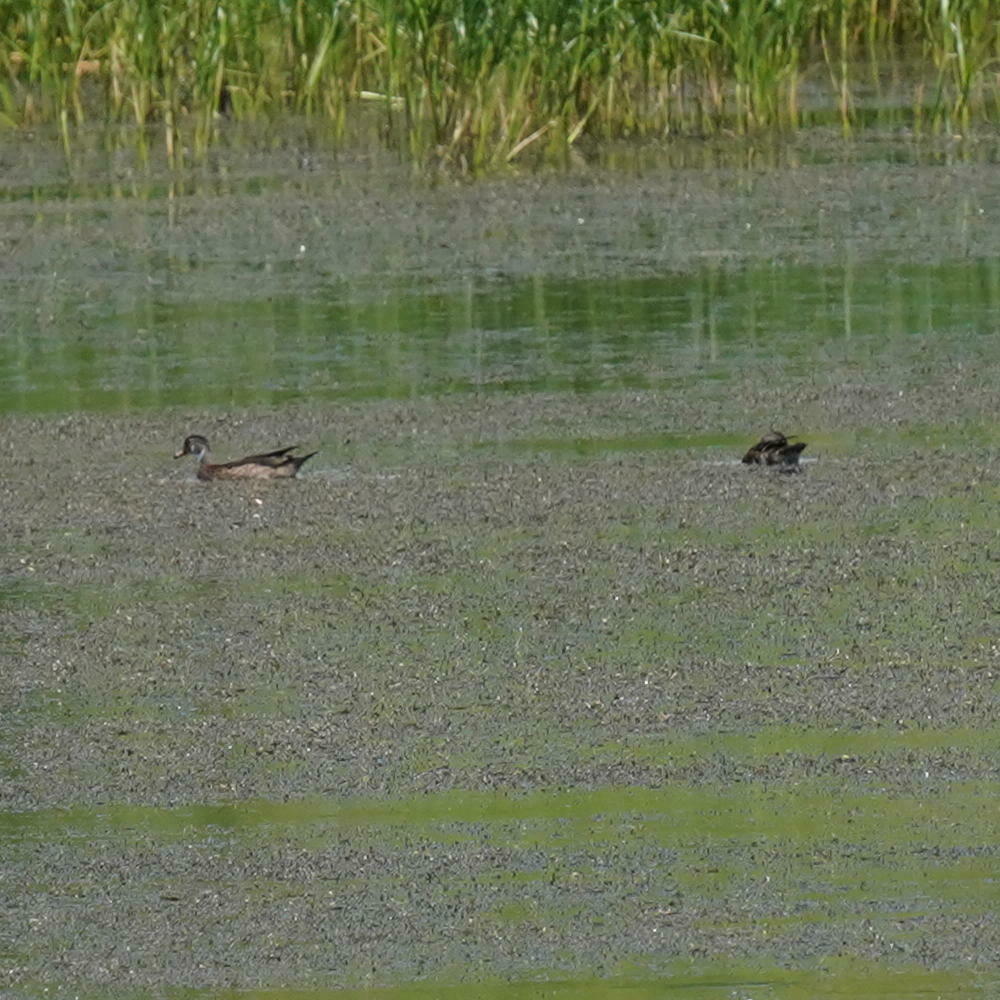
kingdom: Animalia
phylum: Chordata
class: Aves
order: Anseriformes
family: Anatidae
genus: Aix
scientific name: Aix sponsa
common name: Wood duck
